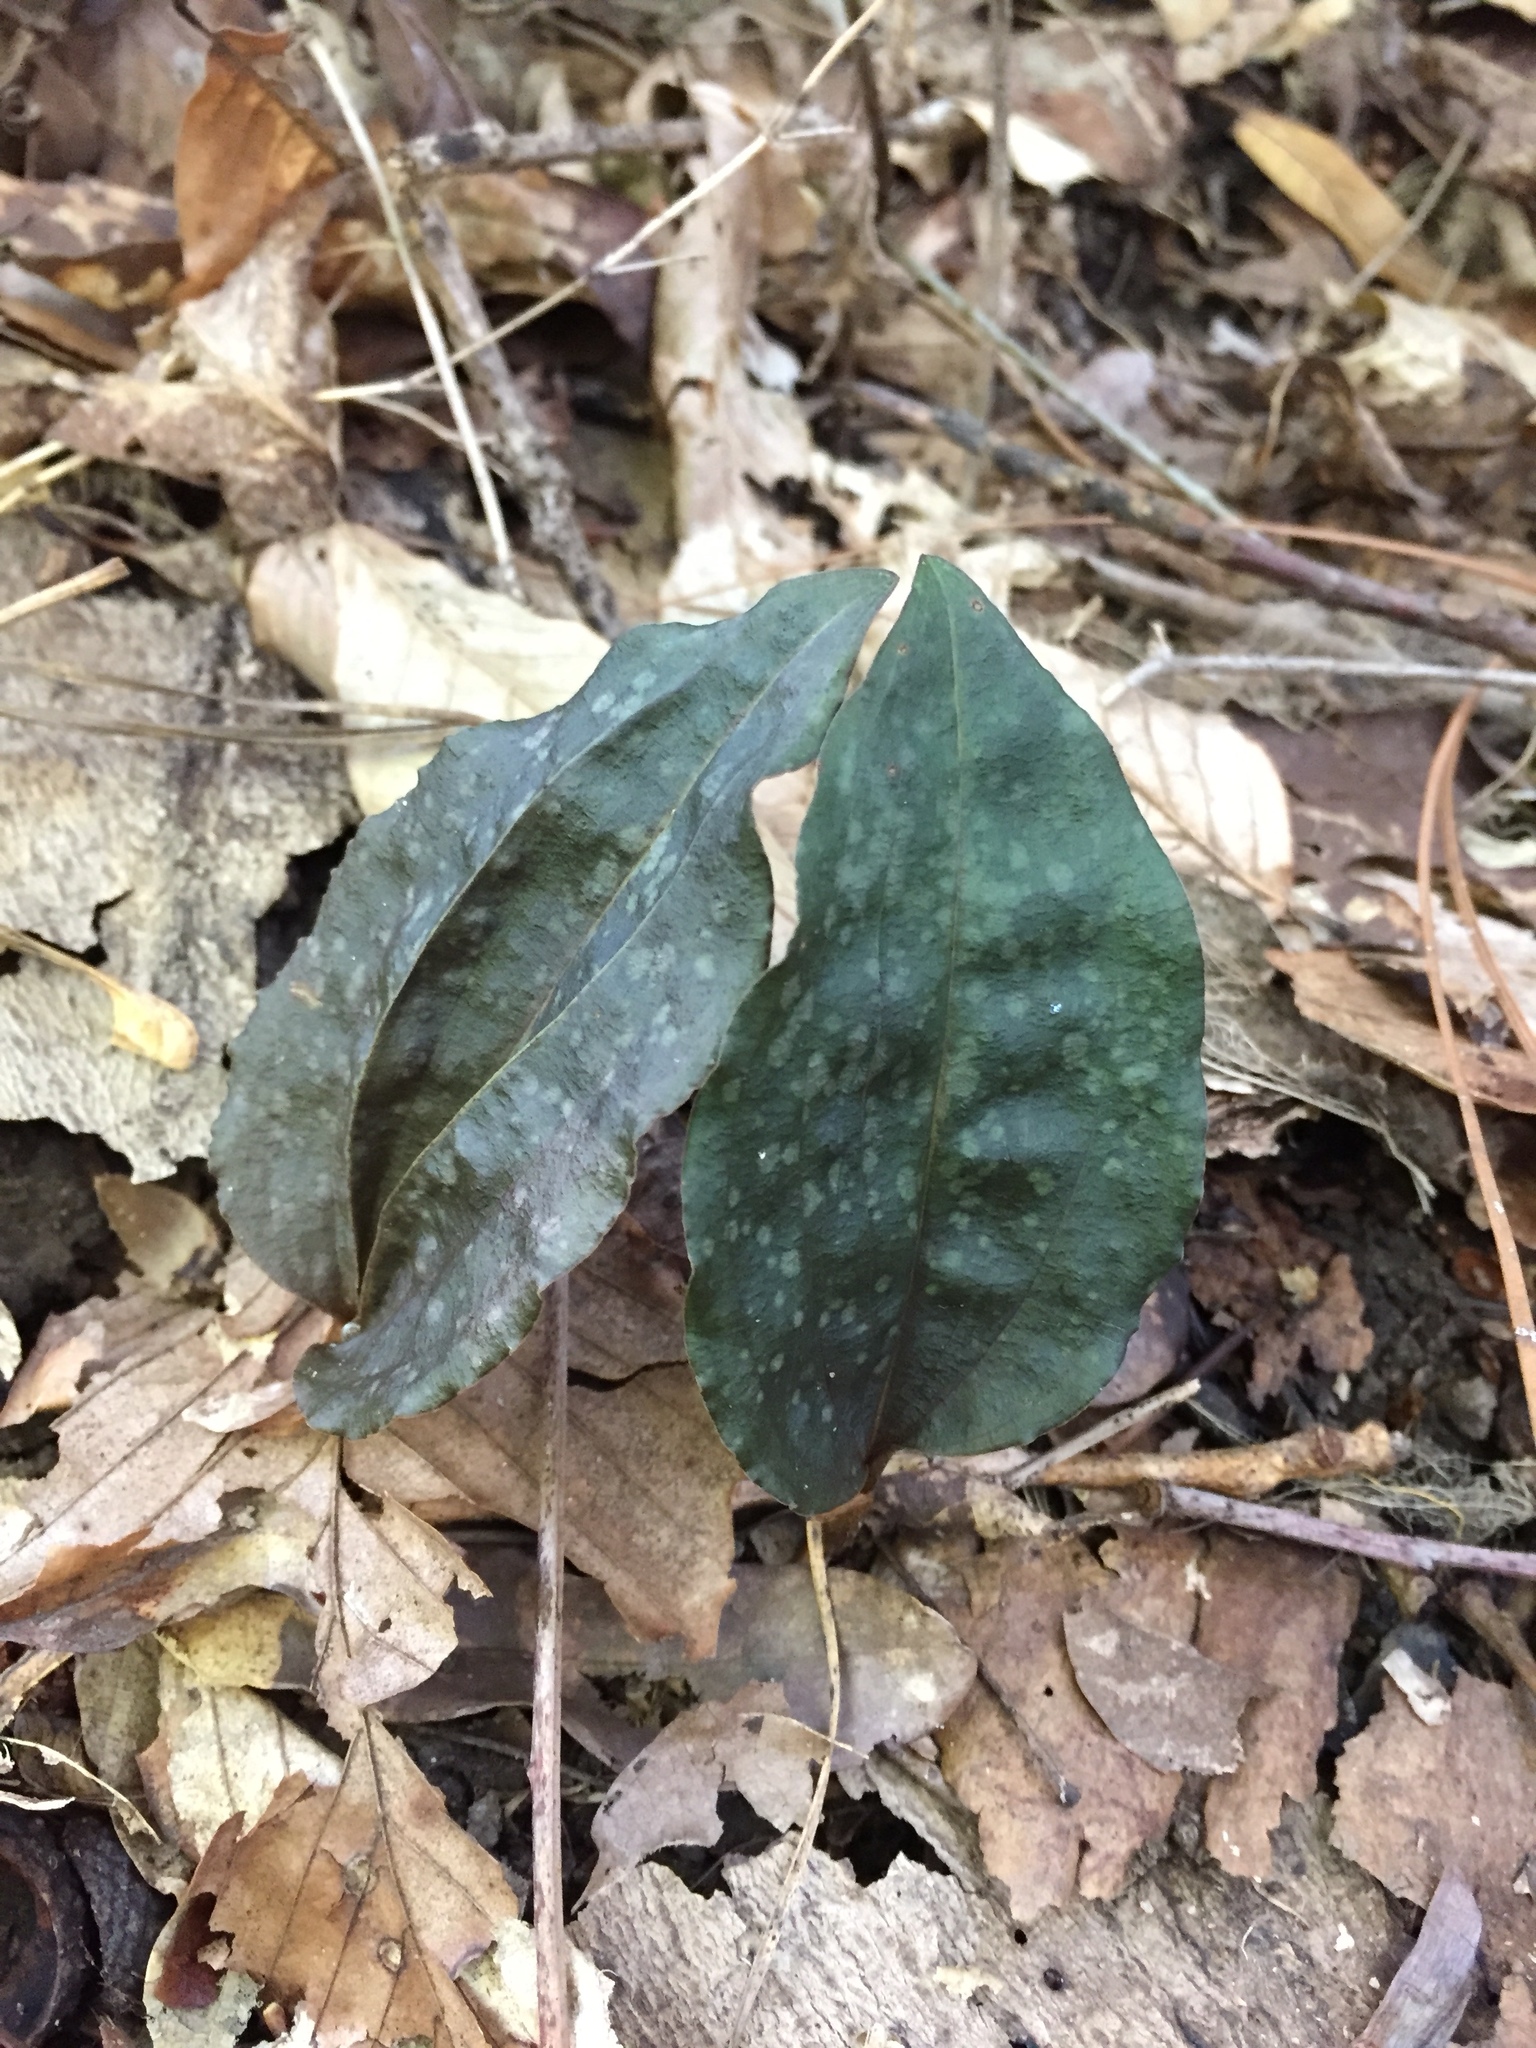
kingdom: Plantae
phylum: Tracheophyta
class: Liliopsida
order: Asparagales
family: Orchidaceae
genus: Tipularia
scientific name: Tipularia discolor
